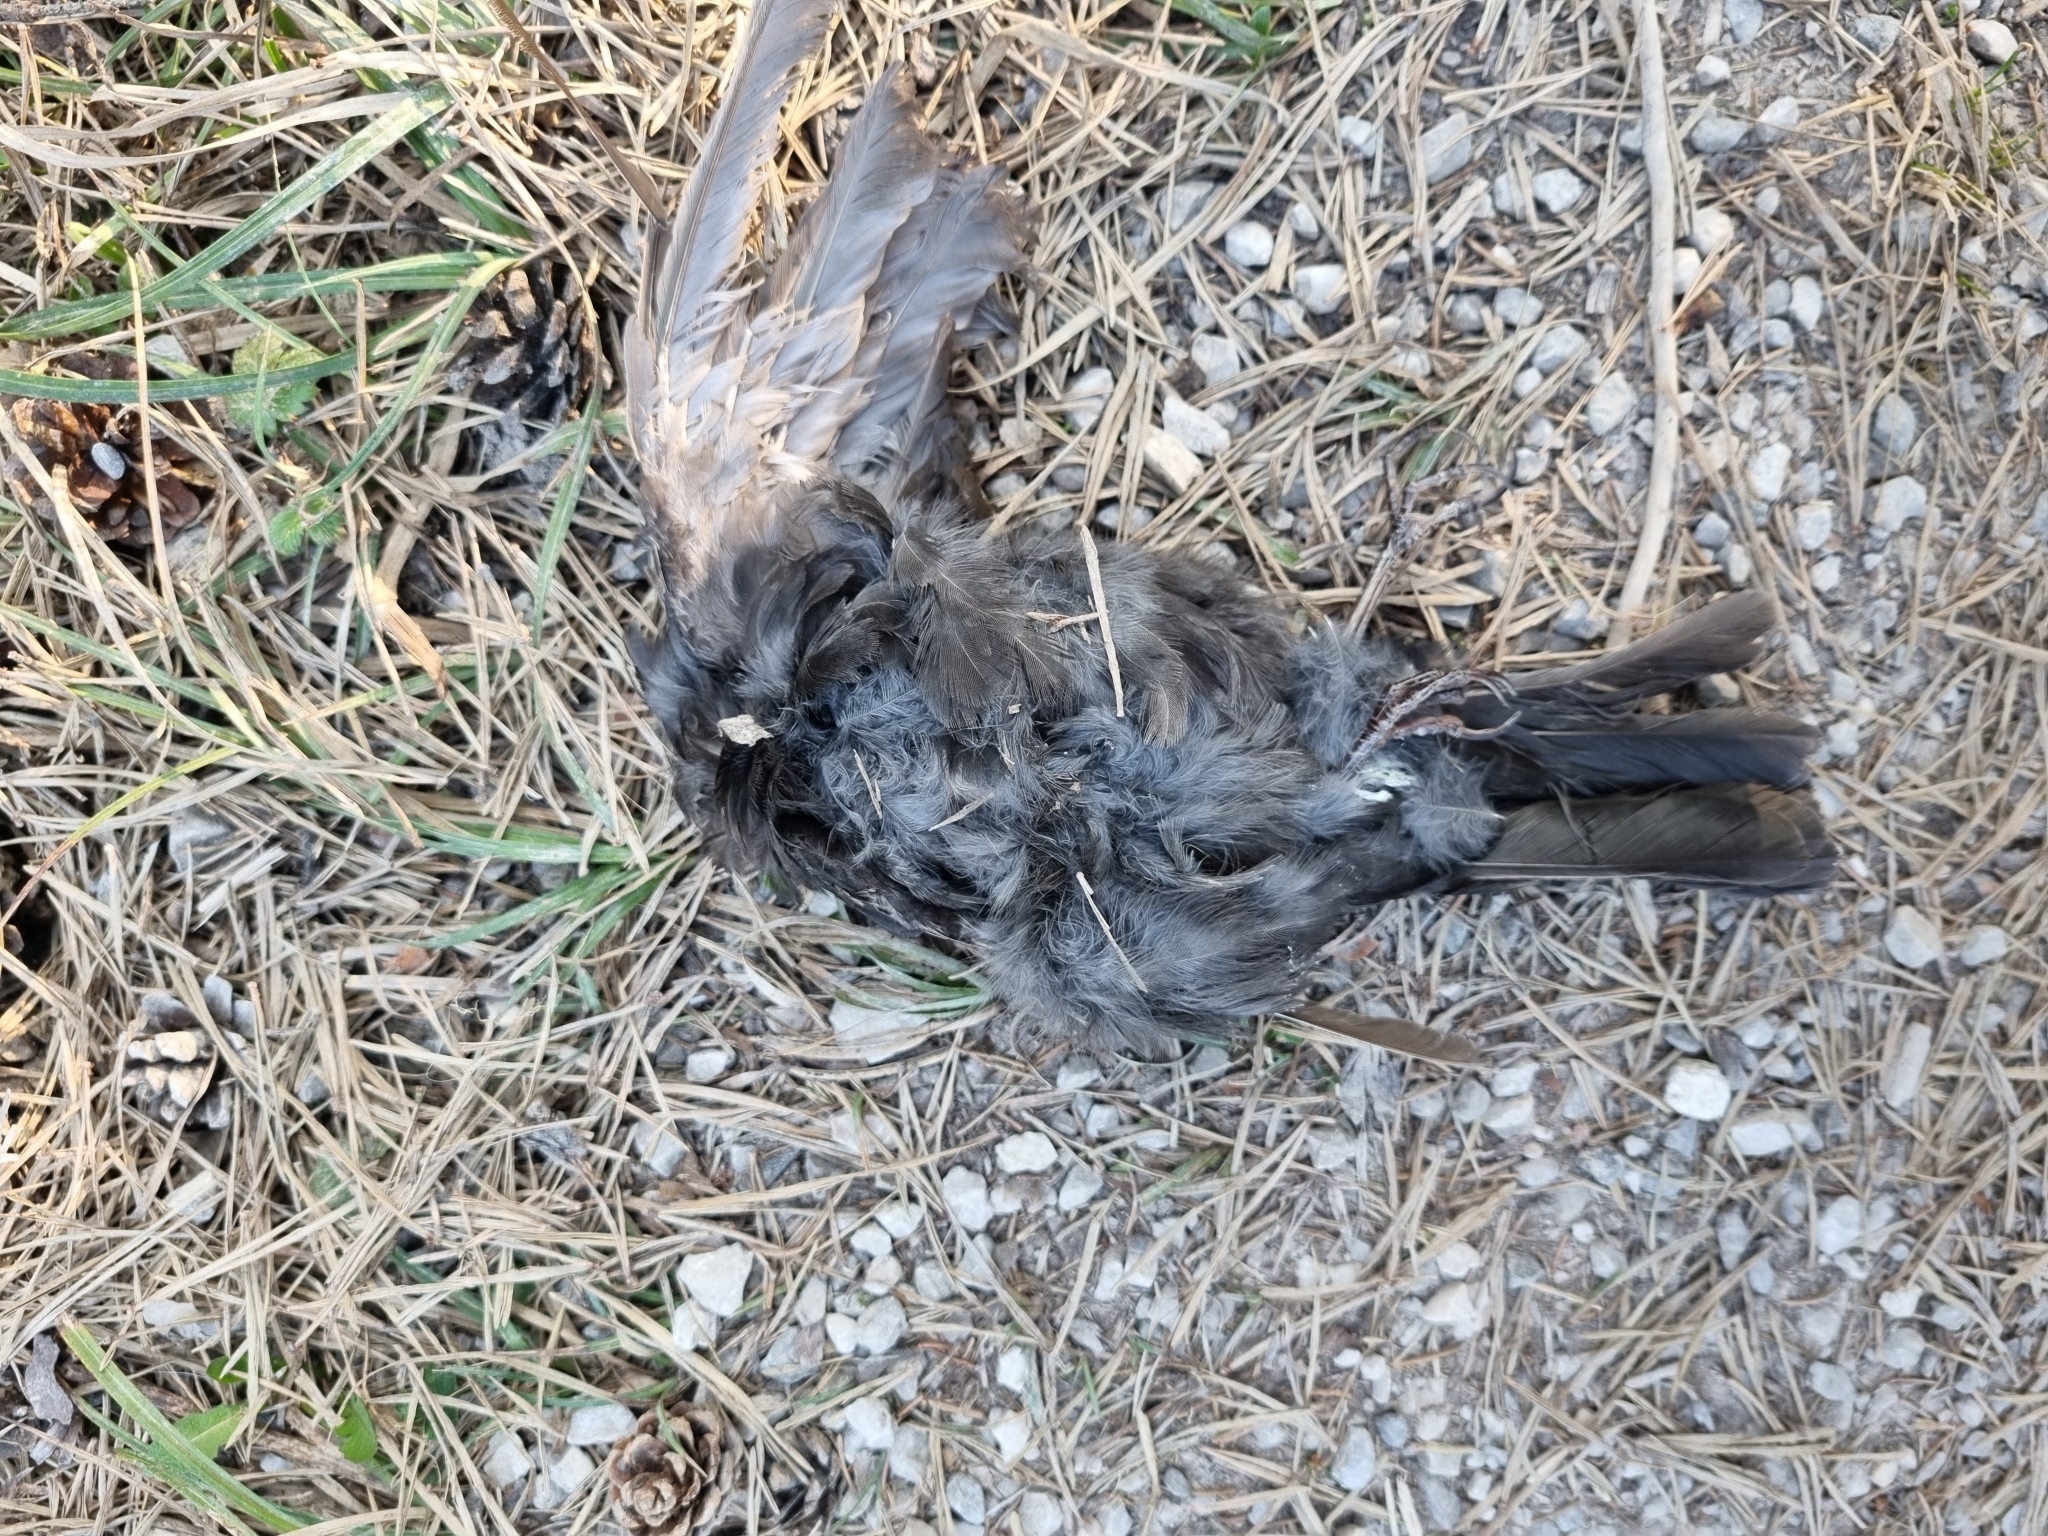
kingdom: Animalia
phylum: Chordata
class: Aves
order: Passeriformes
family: Turdidae
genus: Turdus
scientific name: Turdus merula
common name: Common blackbird
